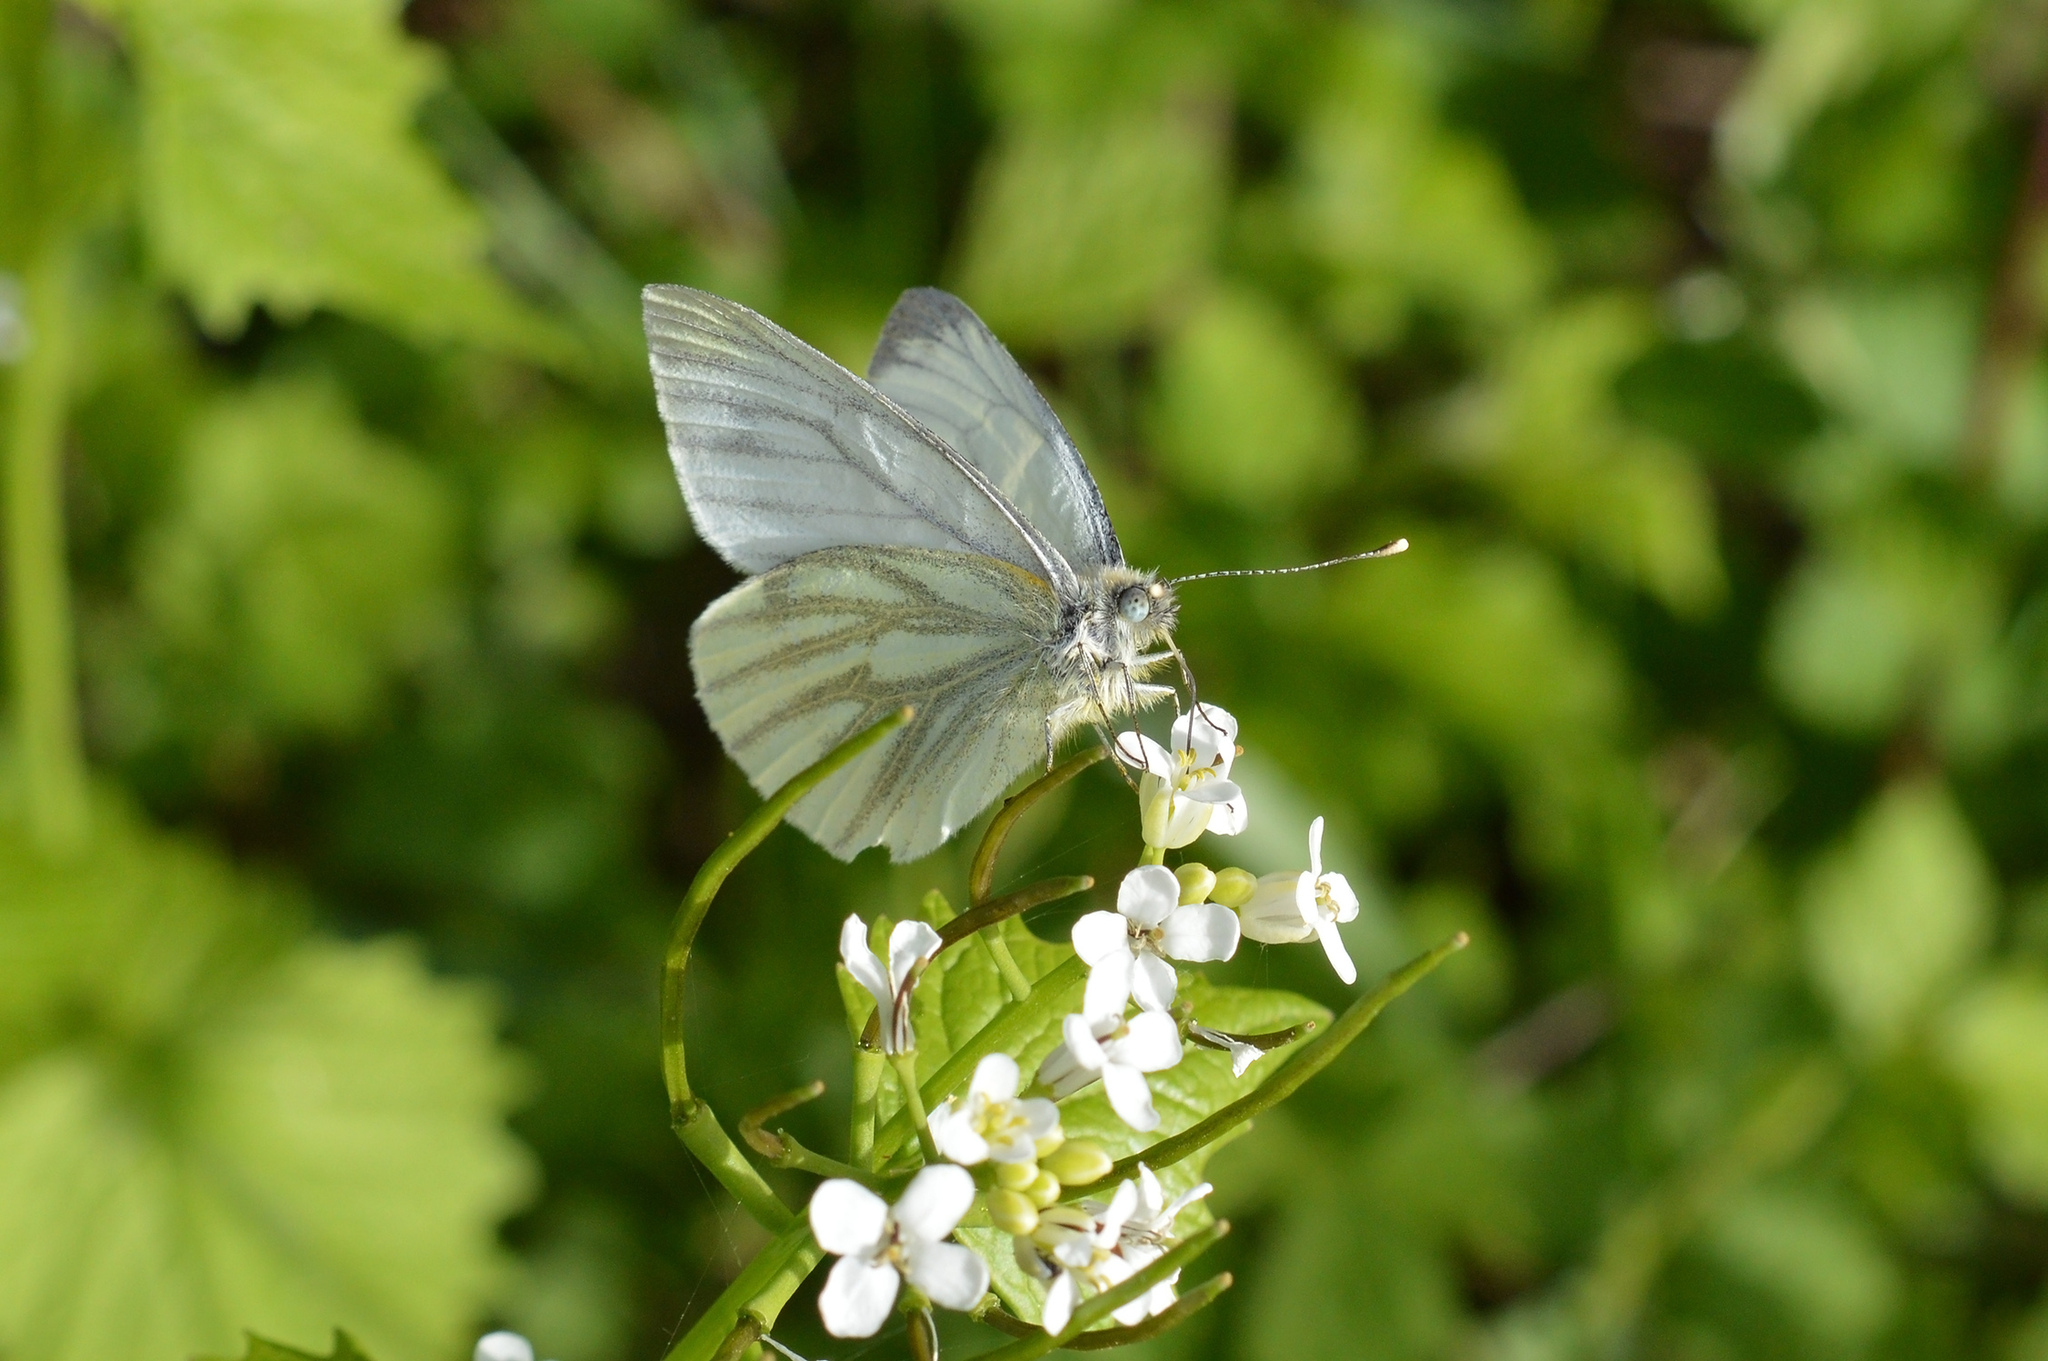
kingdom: Animalia
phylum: Arthropoda
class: Insecta
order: Lepidoptera
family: Pieridae
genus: Pieris
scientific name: Pieris napi
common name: Green-veined white
